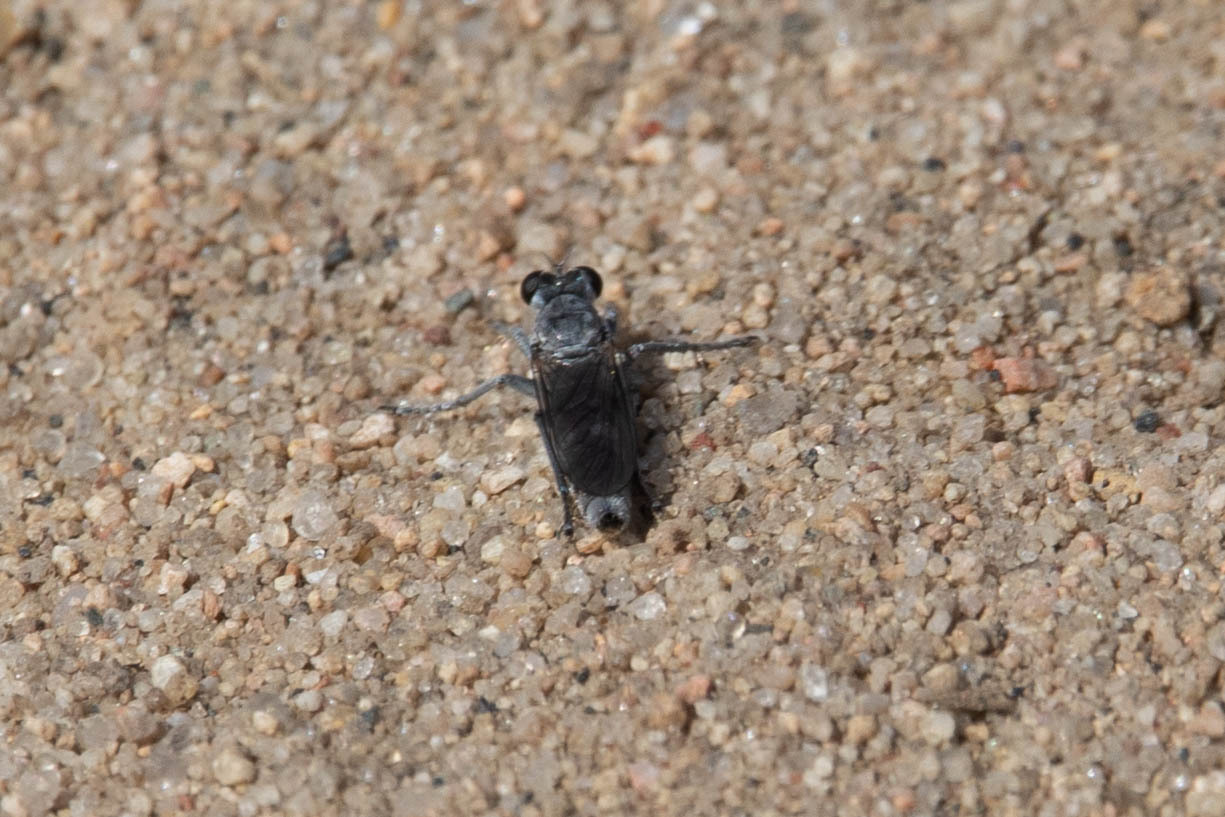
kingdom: Animalia
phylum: Arthropoda
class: Insecta
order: Diptera
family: Asilidae
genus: Stichopogon
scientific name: Stichopogon trifasciatus
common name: Three-banded robber fly
